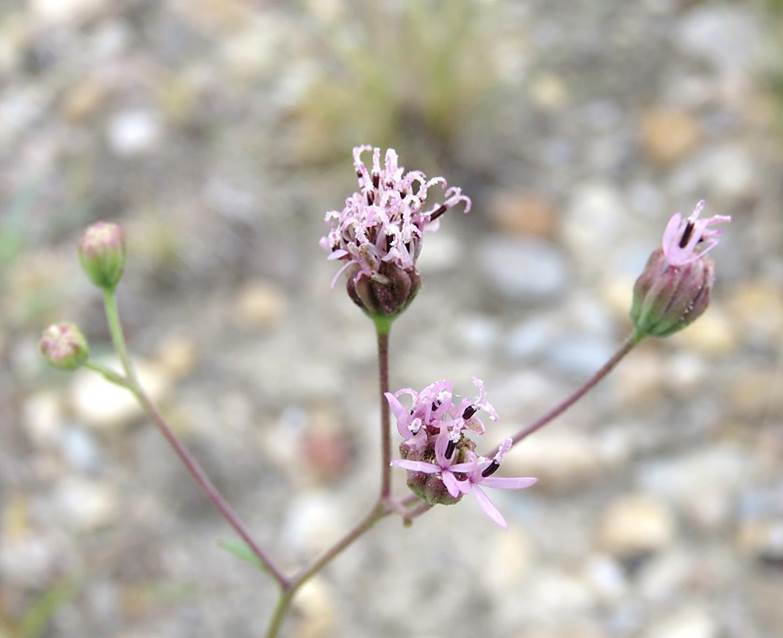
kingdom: Plantae
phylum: Tracheophyta
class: Magnoliopsida
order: Asterales
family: Asteraceae
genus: Palafoxia
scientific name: Palafoxia texana
